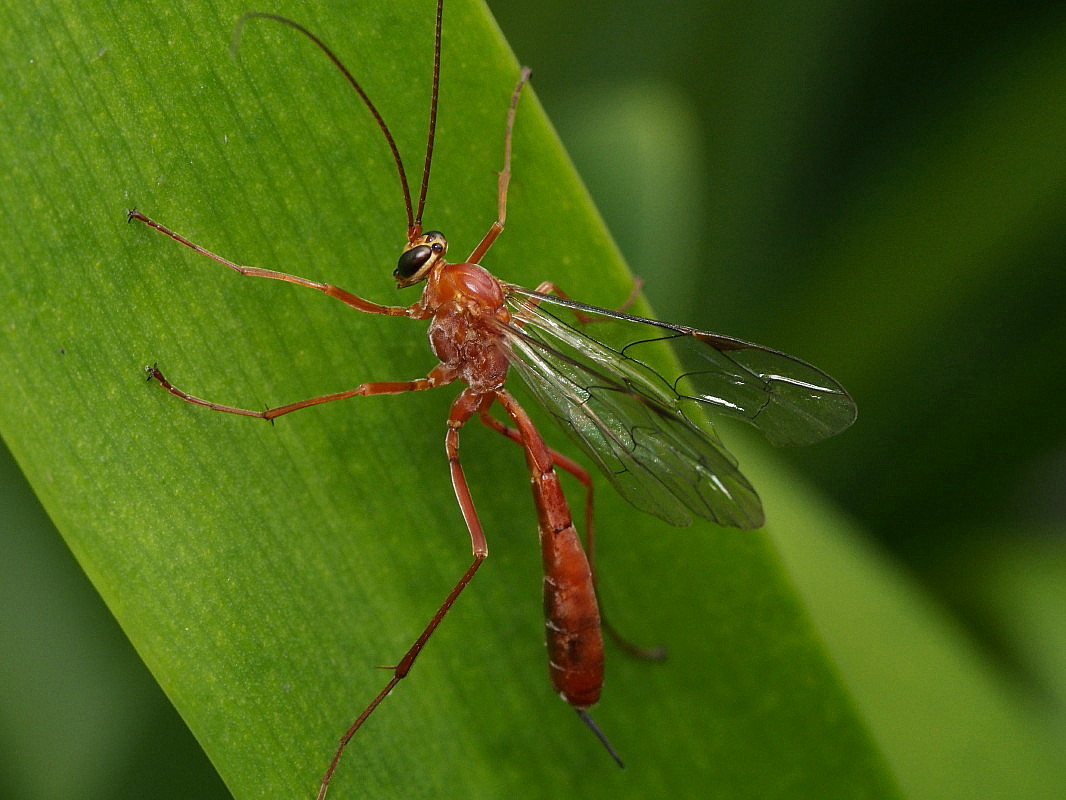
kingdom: Animalia
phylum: Arthropoda
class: Insecta
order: Hymenoptera
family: Ichneumonidae
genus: Netelia
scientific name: Netelia producta
